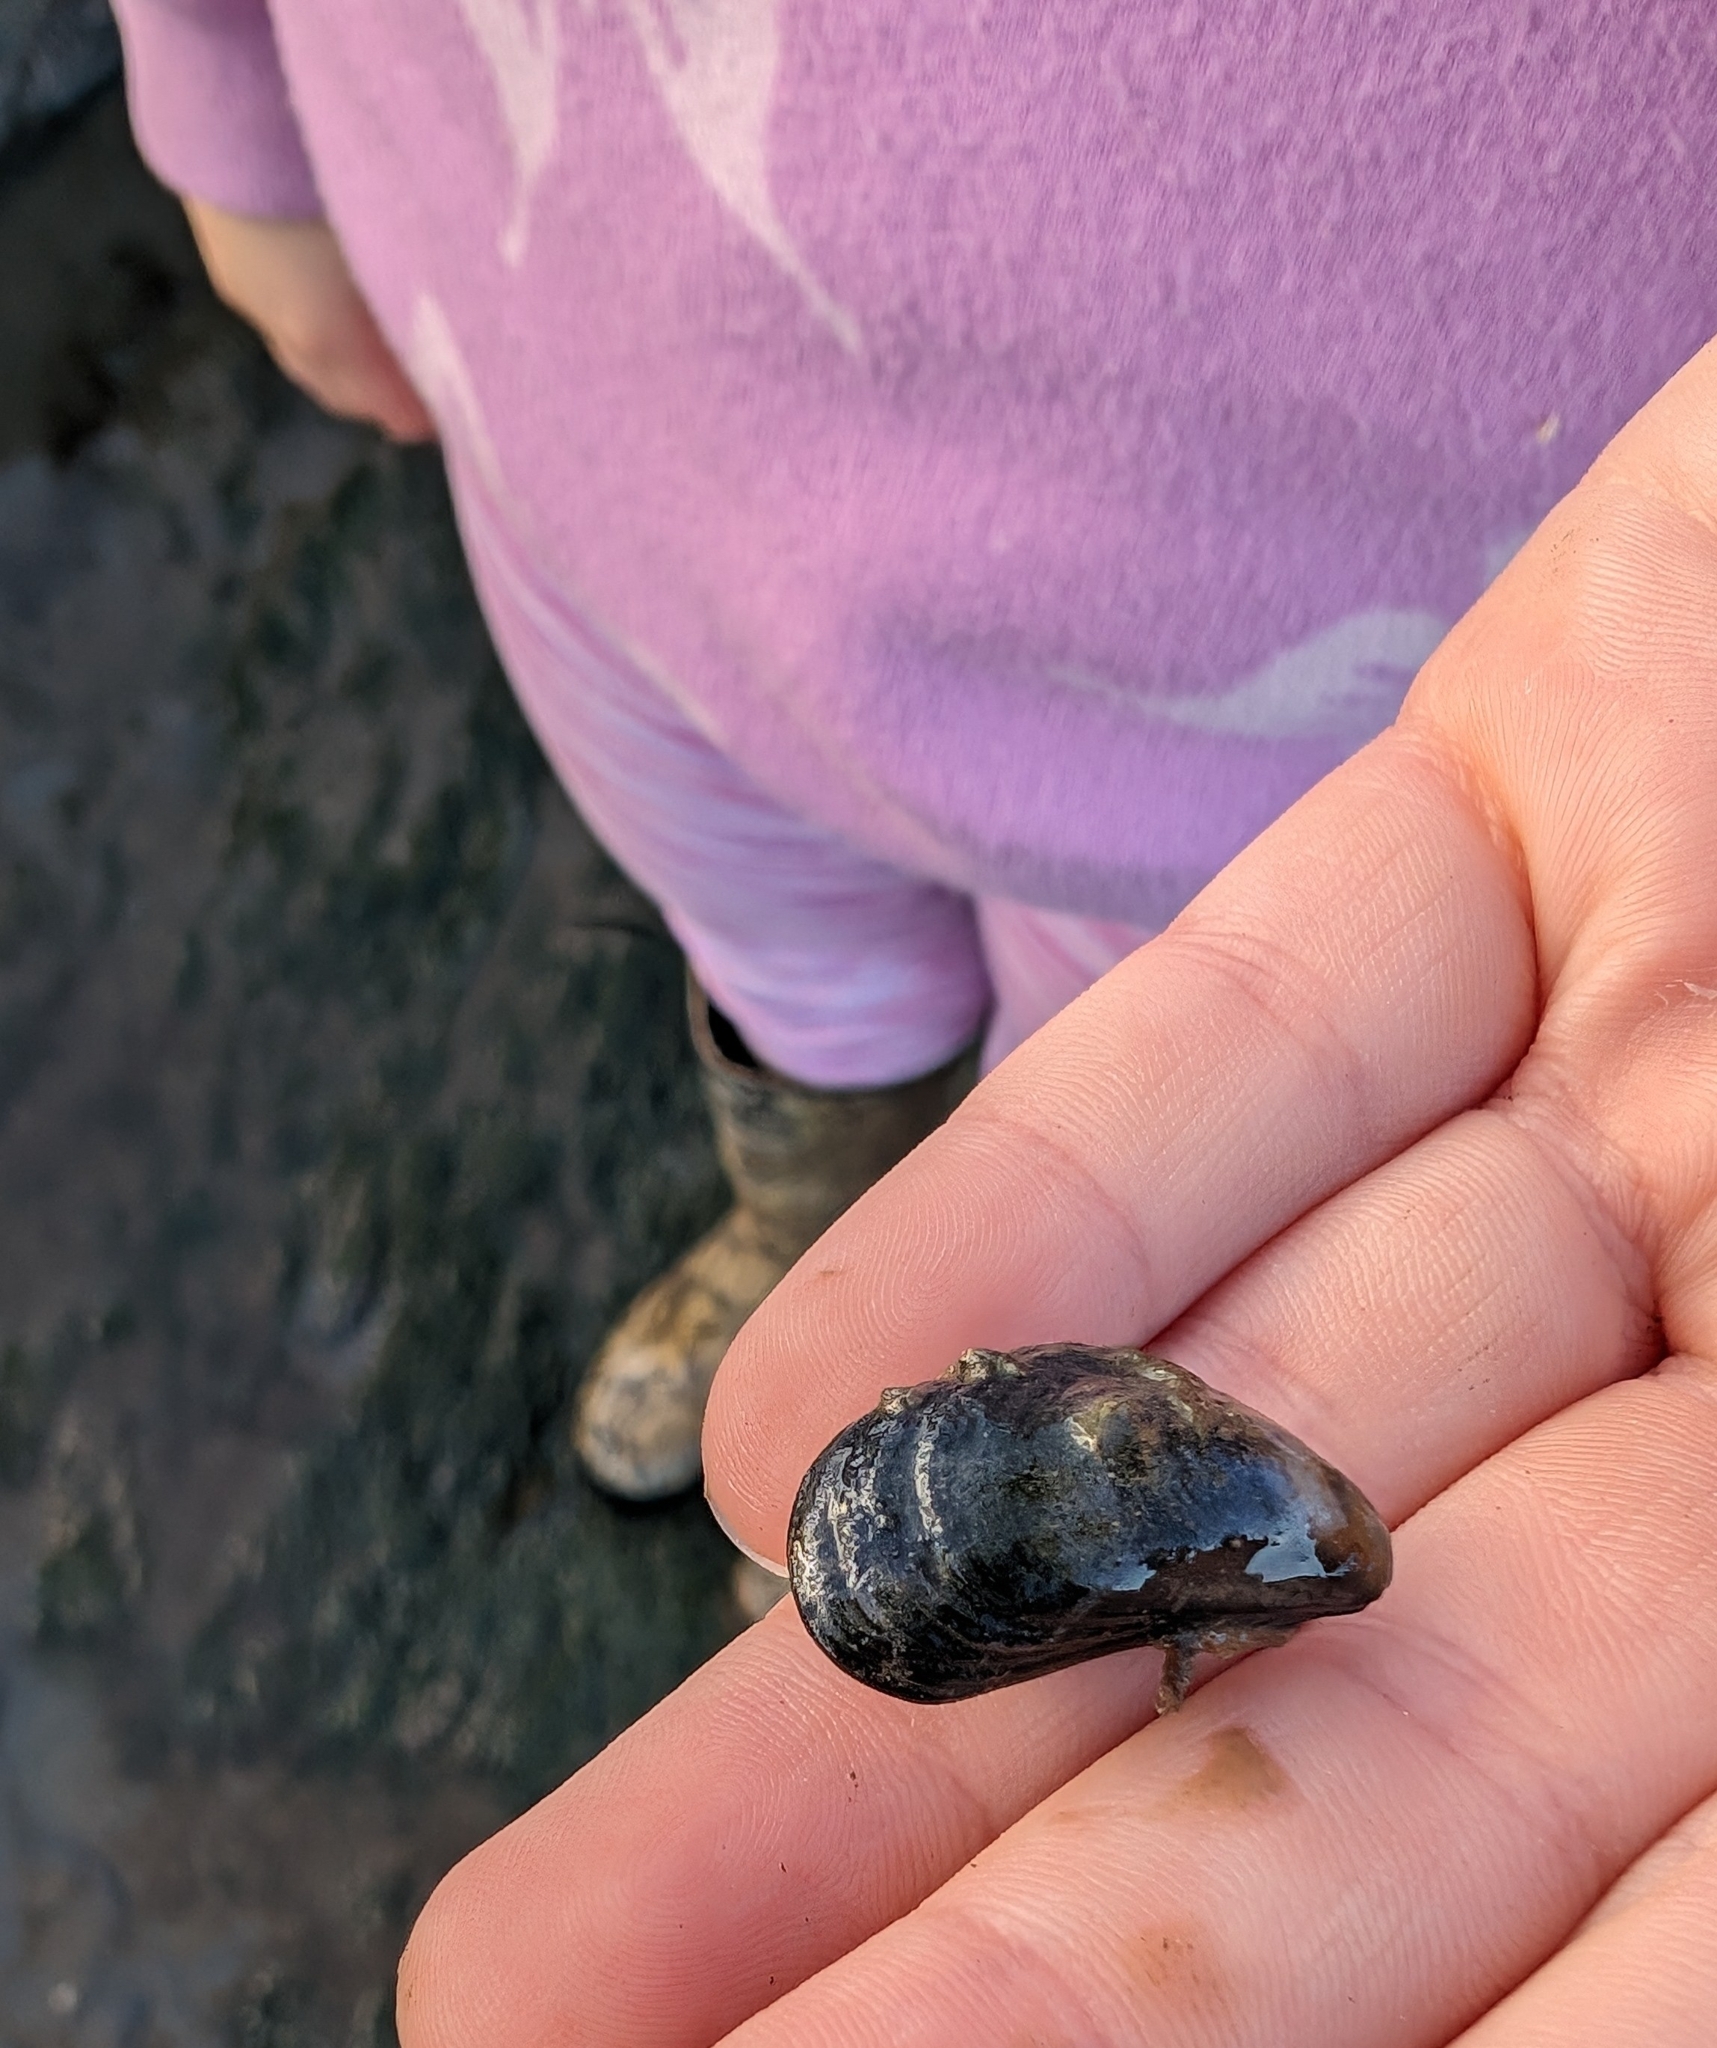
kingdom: Animalia
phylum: Mollusca
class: Bivalvia
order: Mytilida
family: Mytilidae
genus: Mytilus
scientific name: Mytilus edulis
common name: Blue mussel
